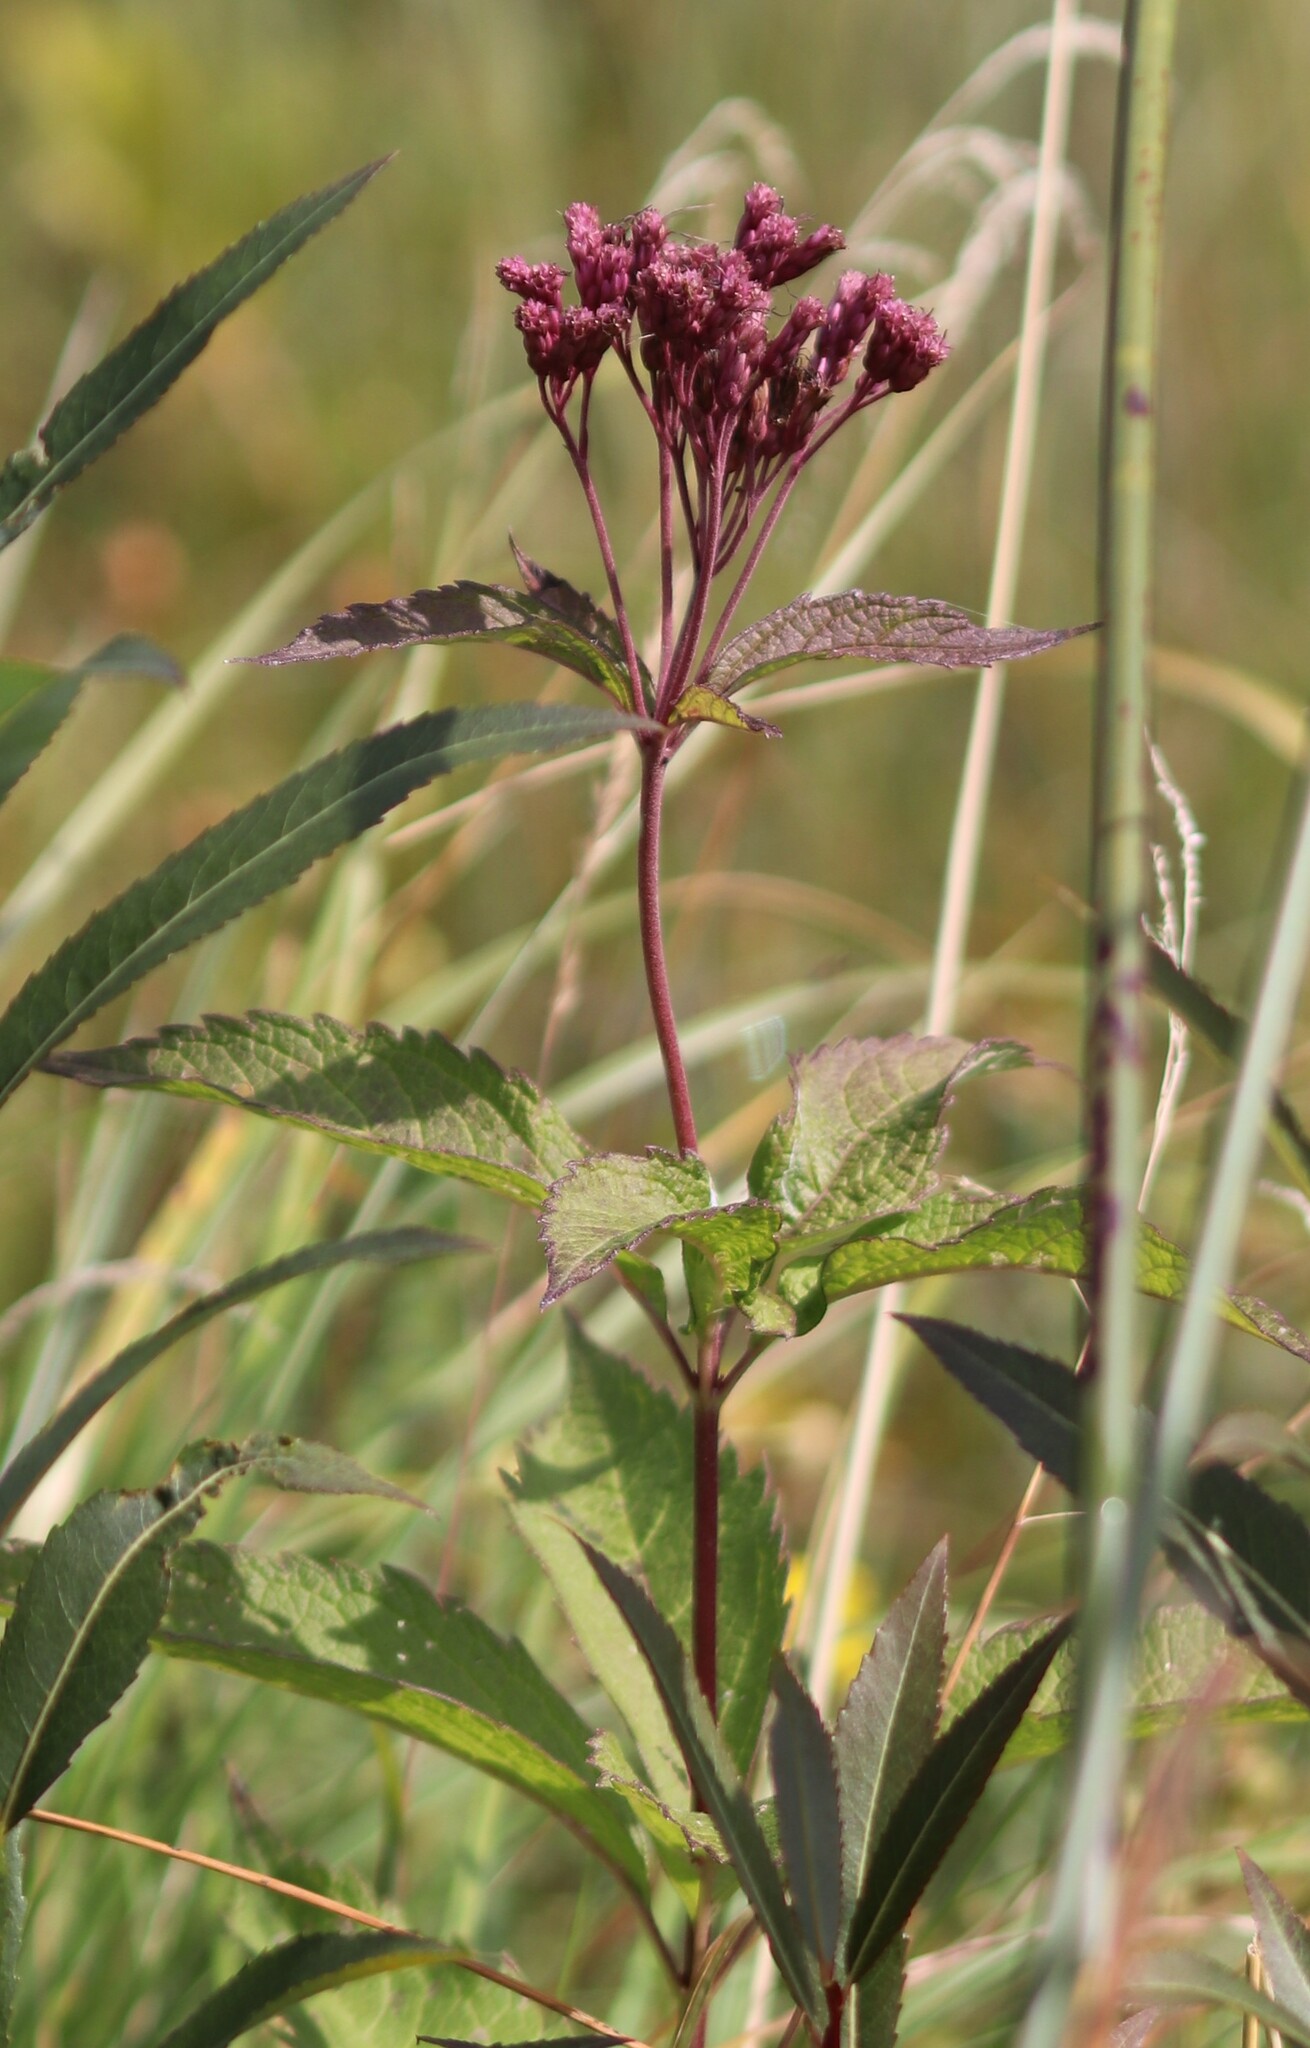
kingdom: Plantae
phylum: Tracheophyta
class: Magnoliopsida
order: Asterales
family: Asteraceae
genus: Eutrochium
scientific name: Eutrochium maculatum
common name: Spotted joe pye weed
